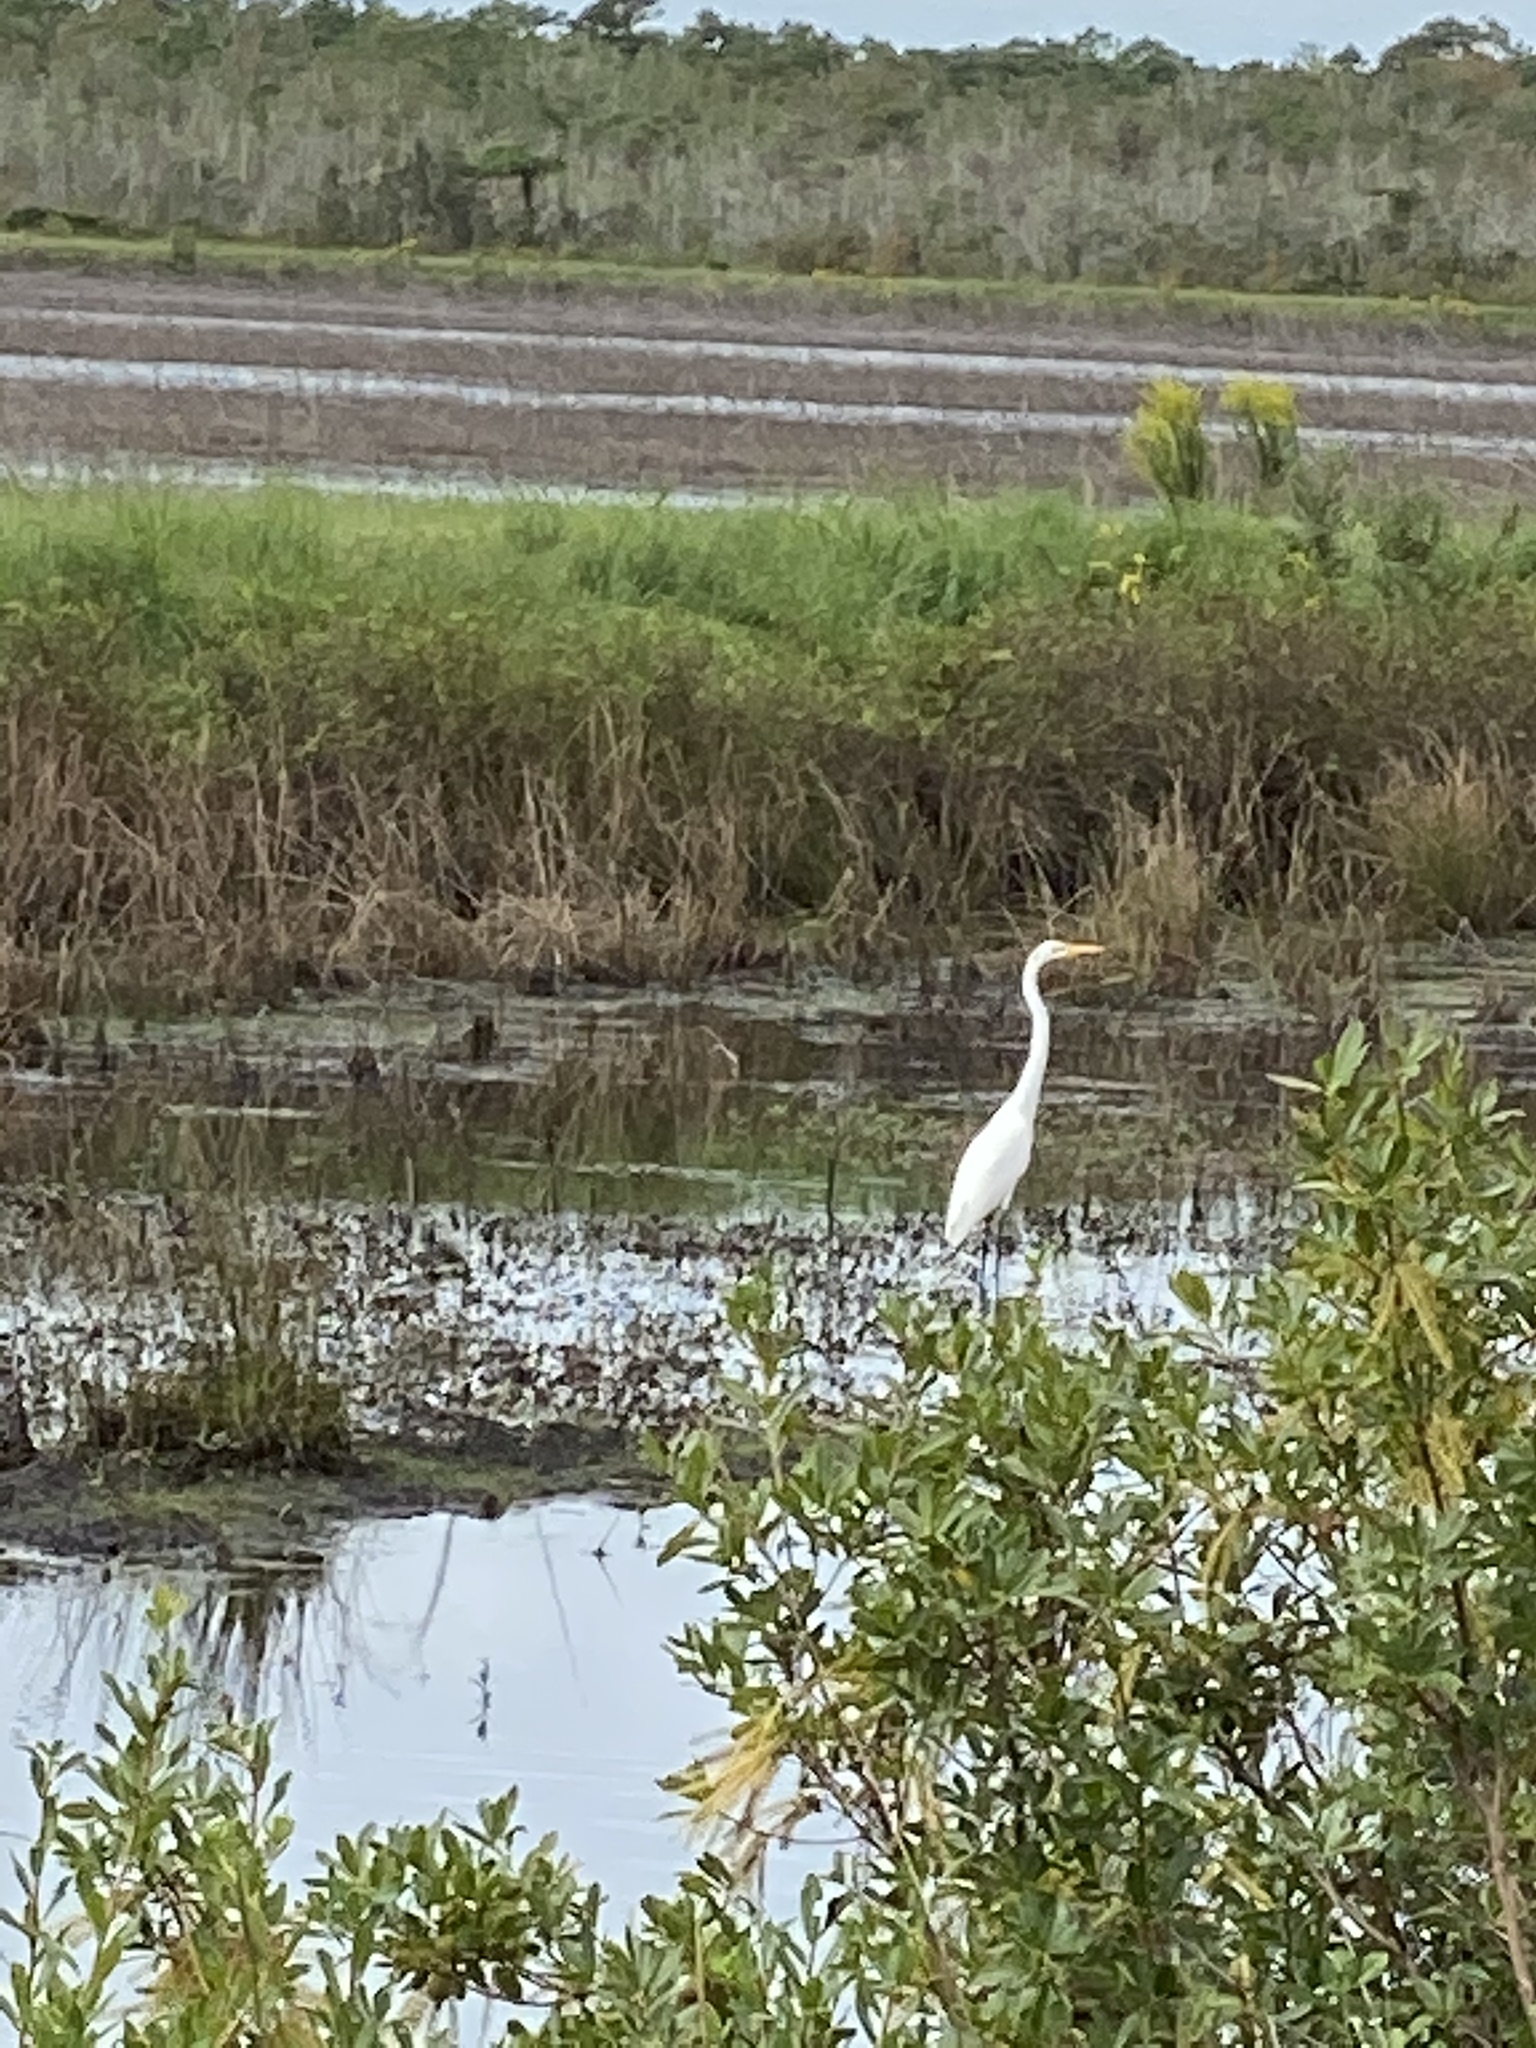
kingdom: Animalia
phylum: Chordata
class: Aves
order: Pelecaniformes
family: Ardeidae
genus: Ardea
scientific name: Ardea alba
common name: Great egret
